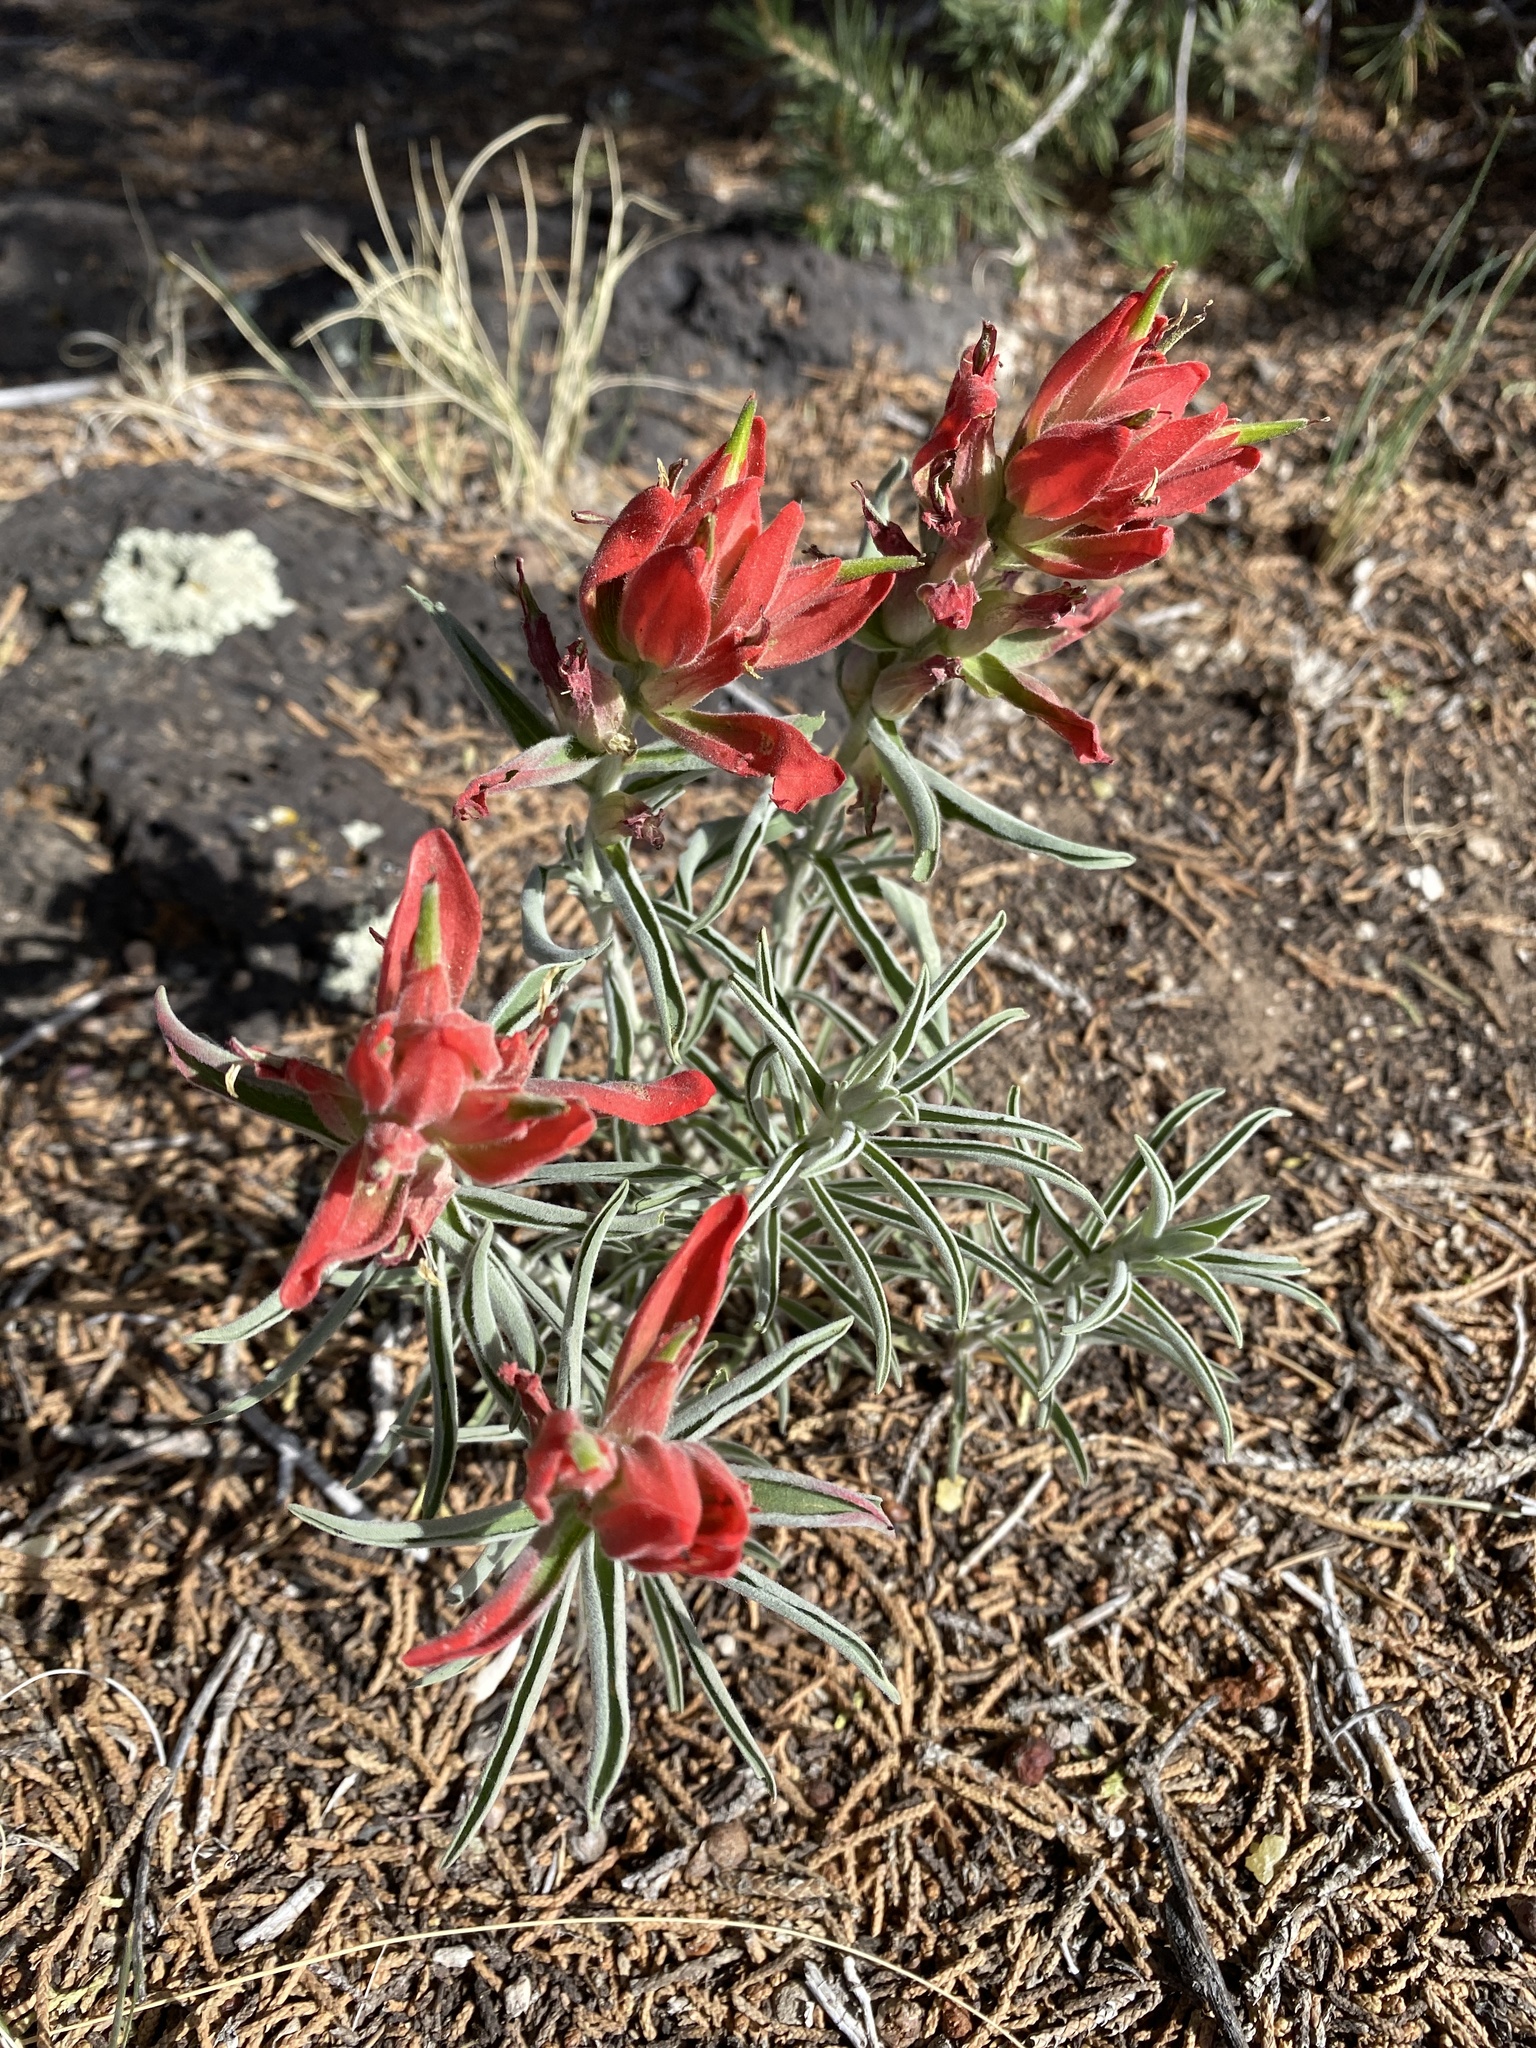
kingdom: Plantae
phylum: Tracheophyta
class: Magnoliopsida
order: Lamiales
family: Orobanchaceae
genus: Castilleja
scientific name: Castilleja integra
